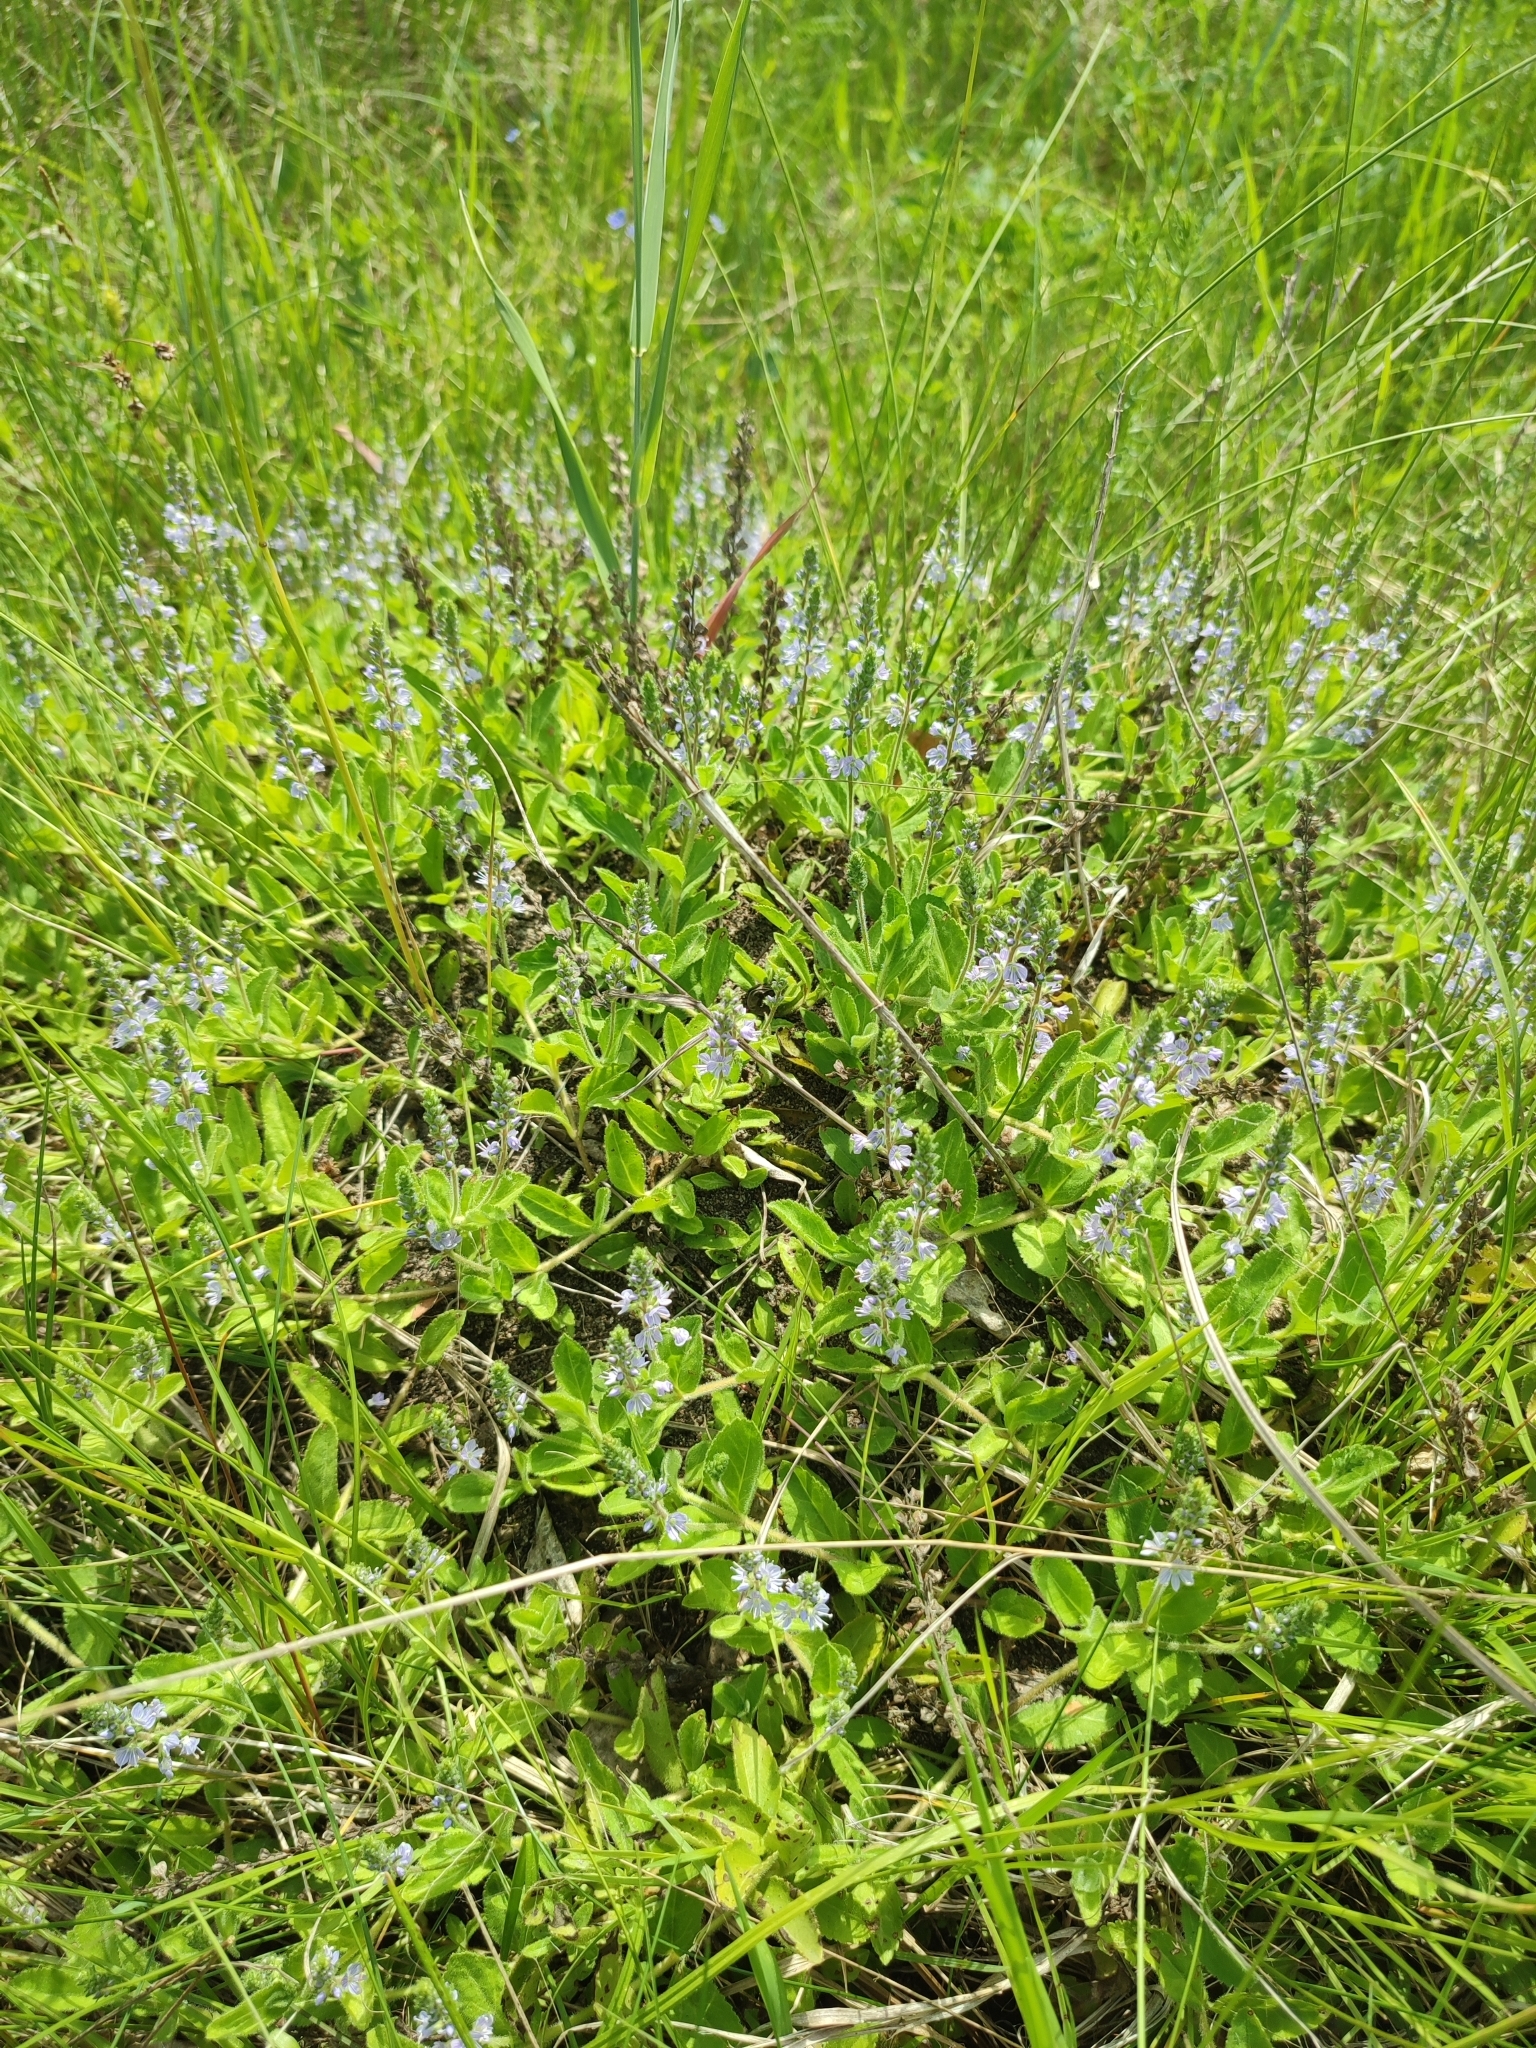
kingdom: Plantae
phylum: Tracheophyta
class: Magnoliopsida
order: Lamiales
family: Plantaginaceae
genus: Veronica
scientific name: Veronica officinalis
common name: Common speedwell
